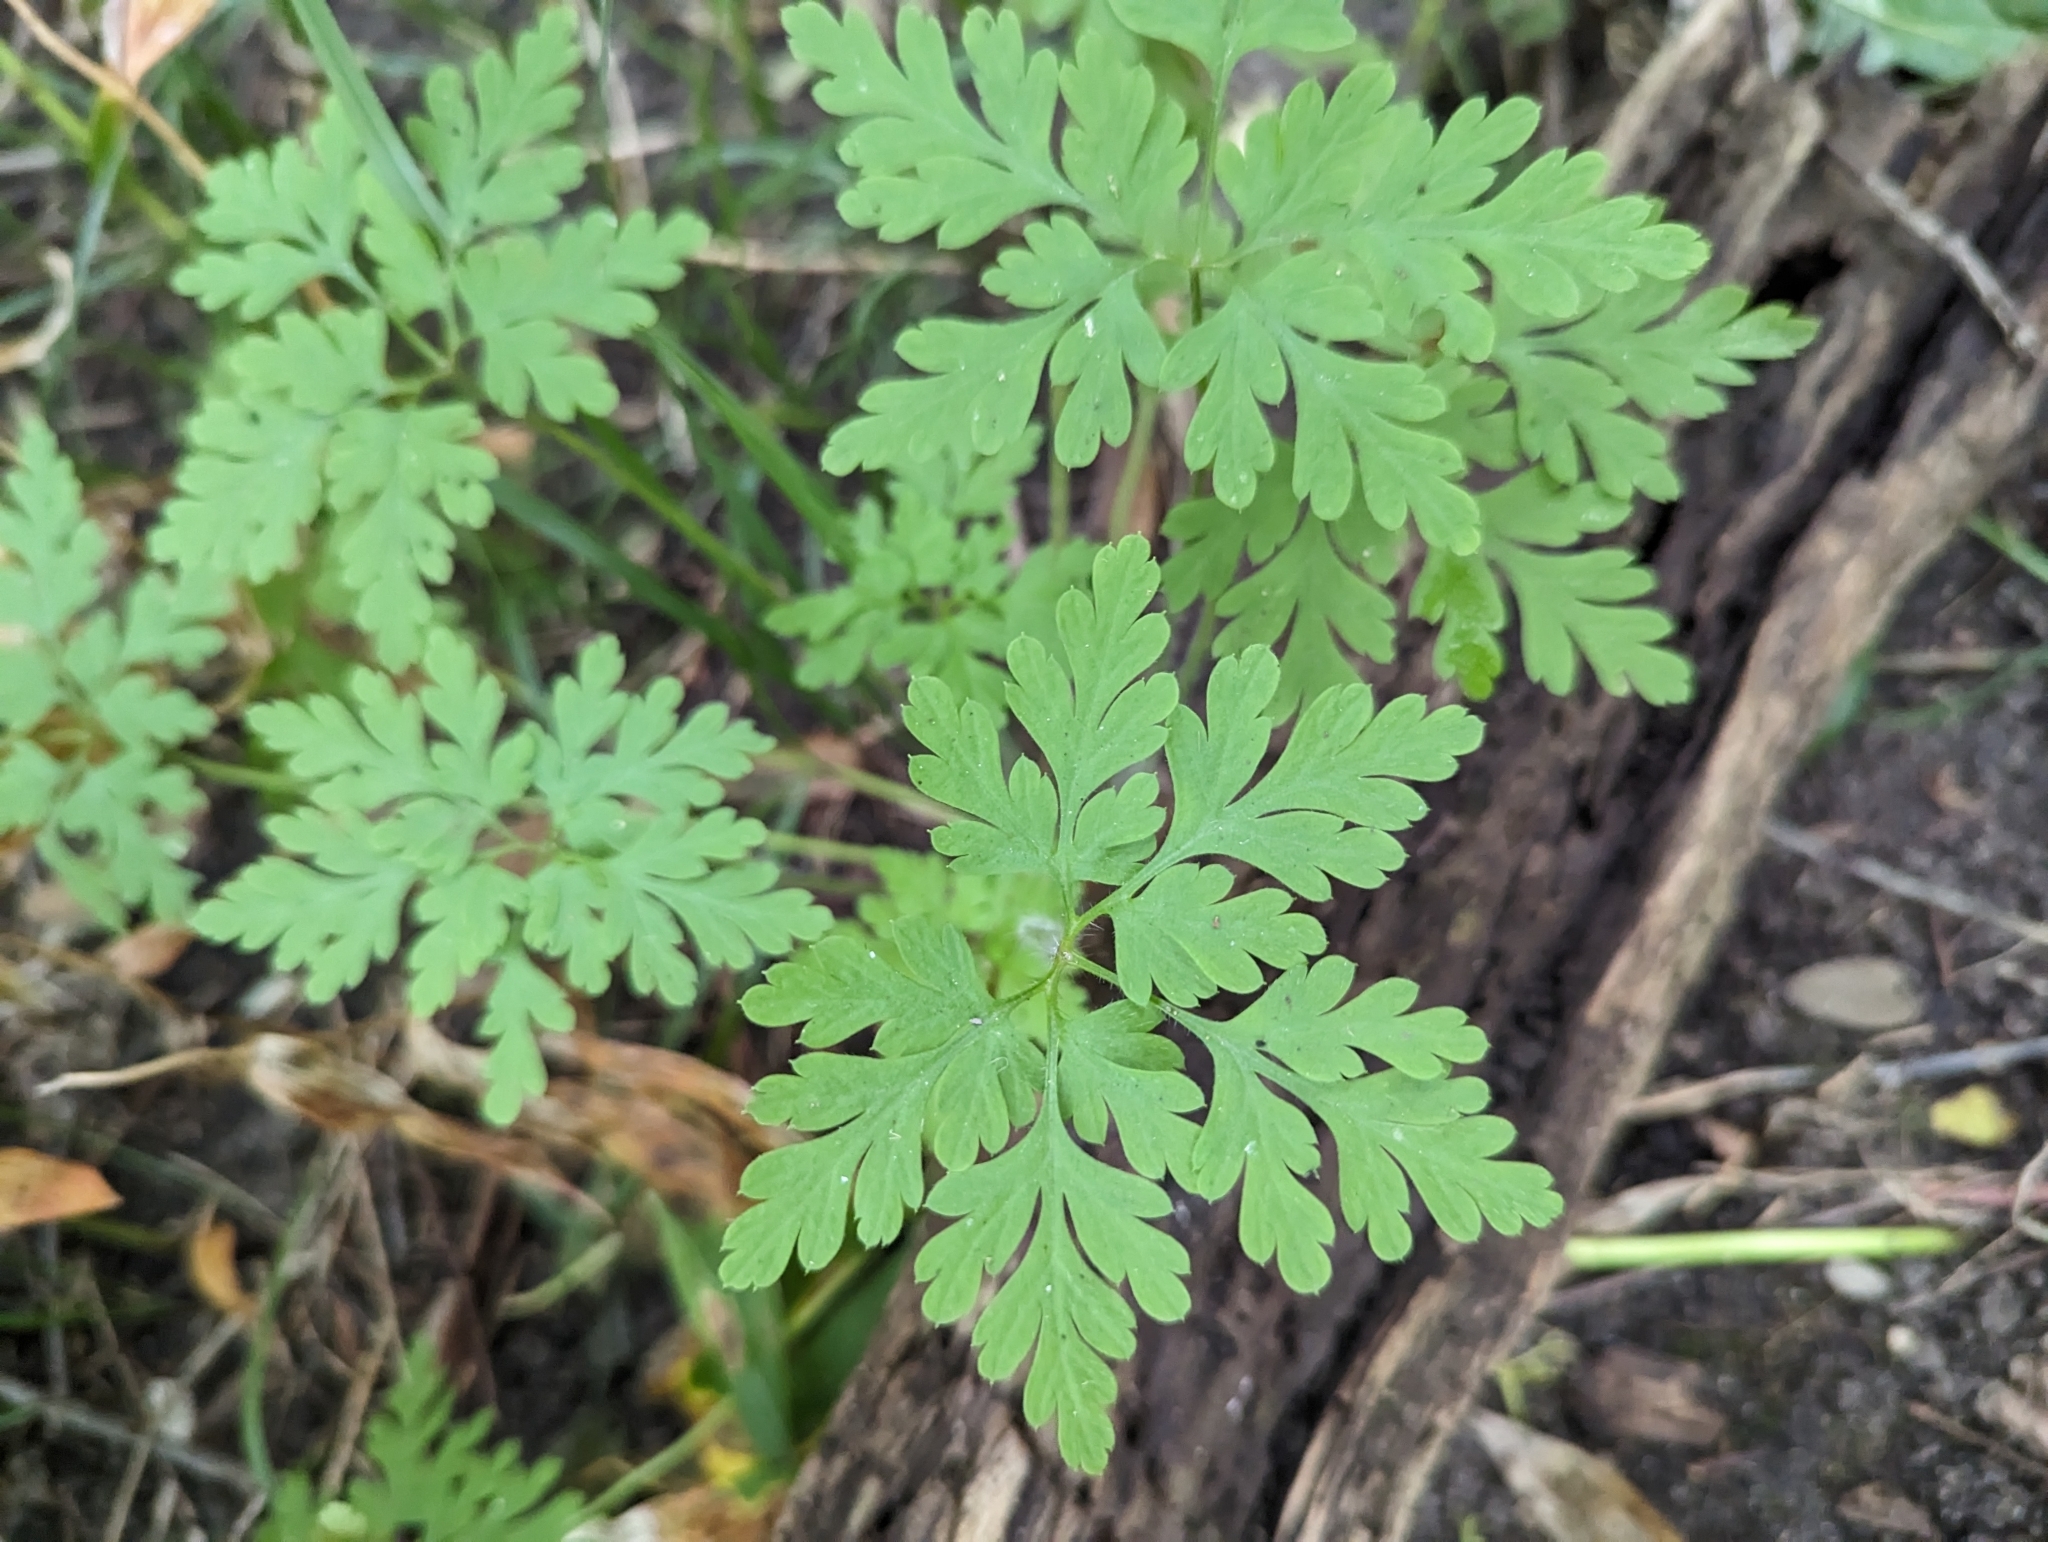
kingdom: Plantae
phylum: Tracheophyta
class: Magnoliopsida
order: Geraniales
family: Geraniaceae
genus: Geranium
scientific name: Geranium robertianum
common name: Herb-robert
